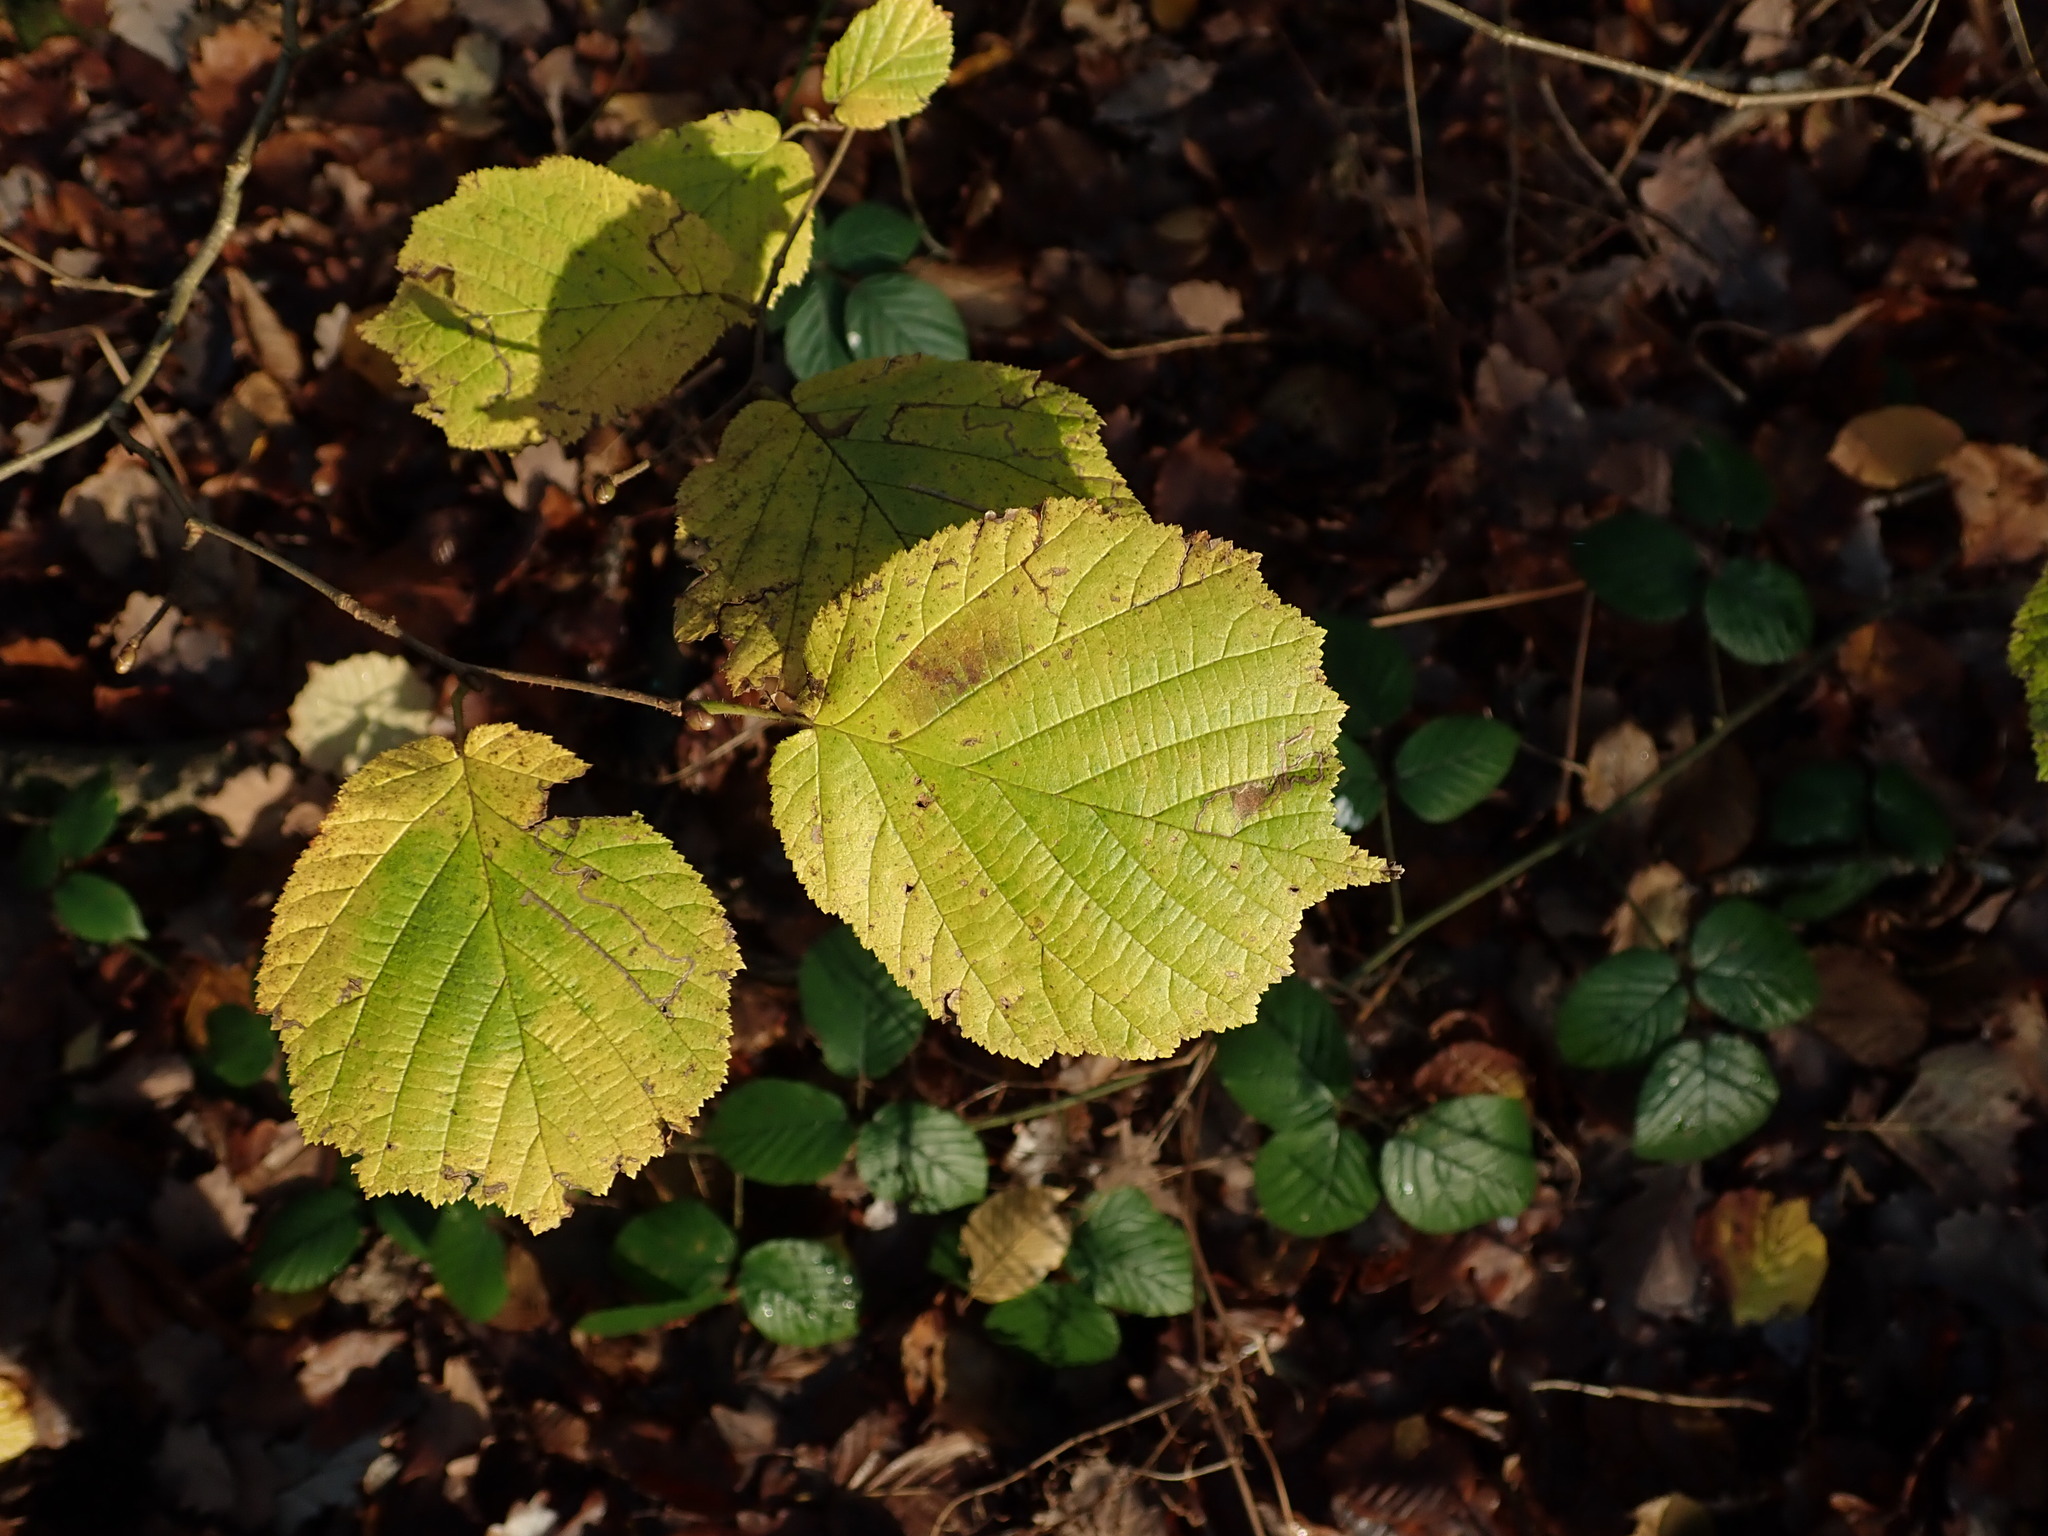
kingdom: Plantae
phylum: Tracheophyta
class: Magnoliopsida
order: Fagales
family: Betulaceae
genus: Corylus
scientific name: Corylus avellana
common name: European hazel
